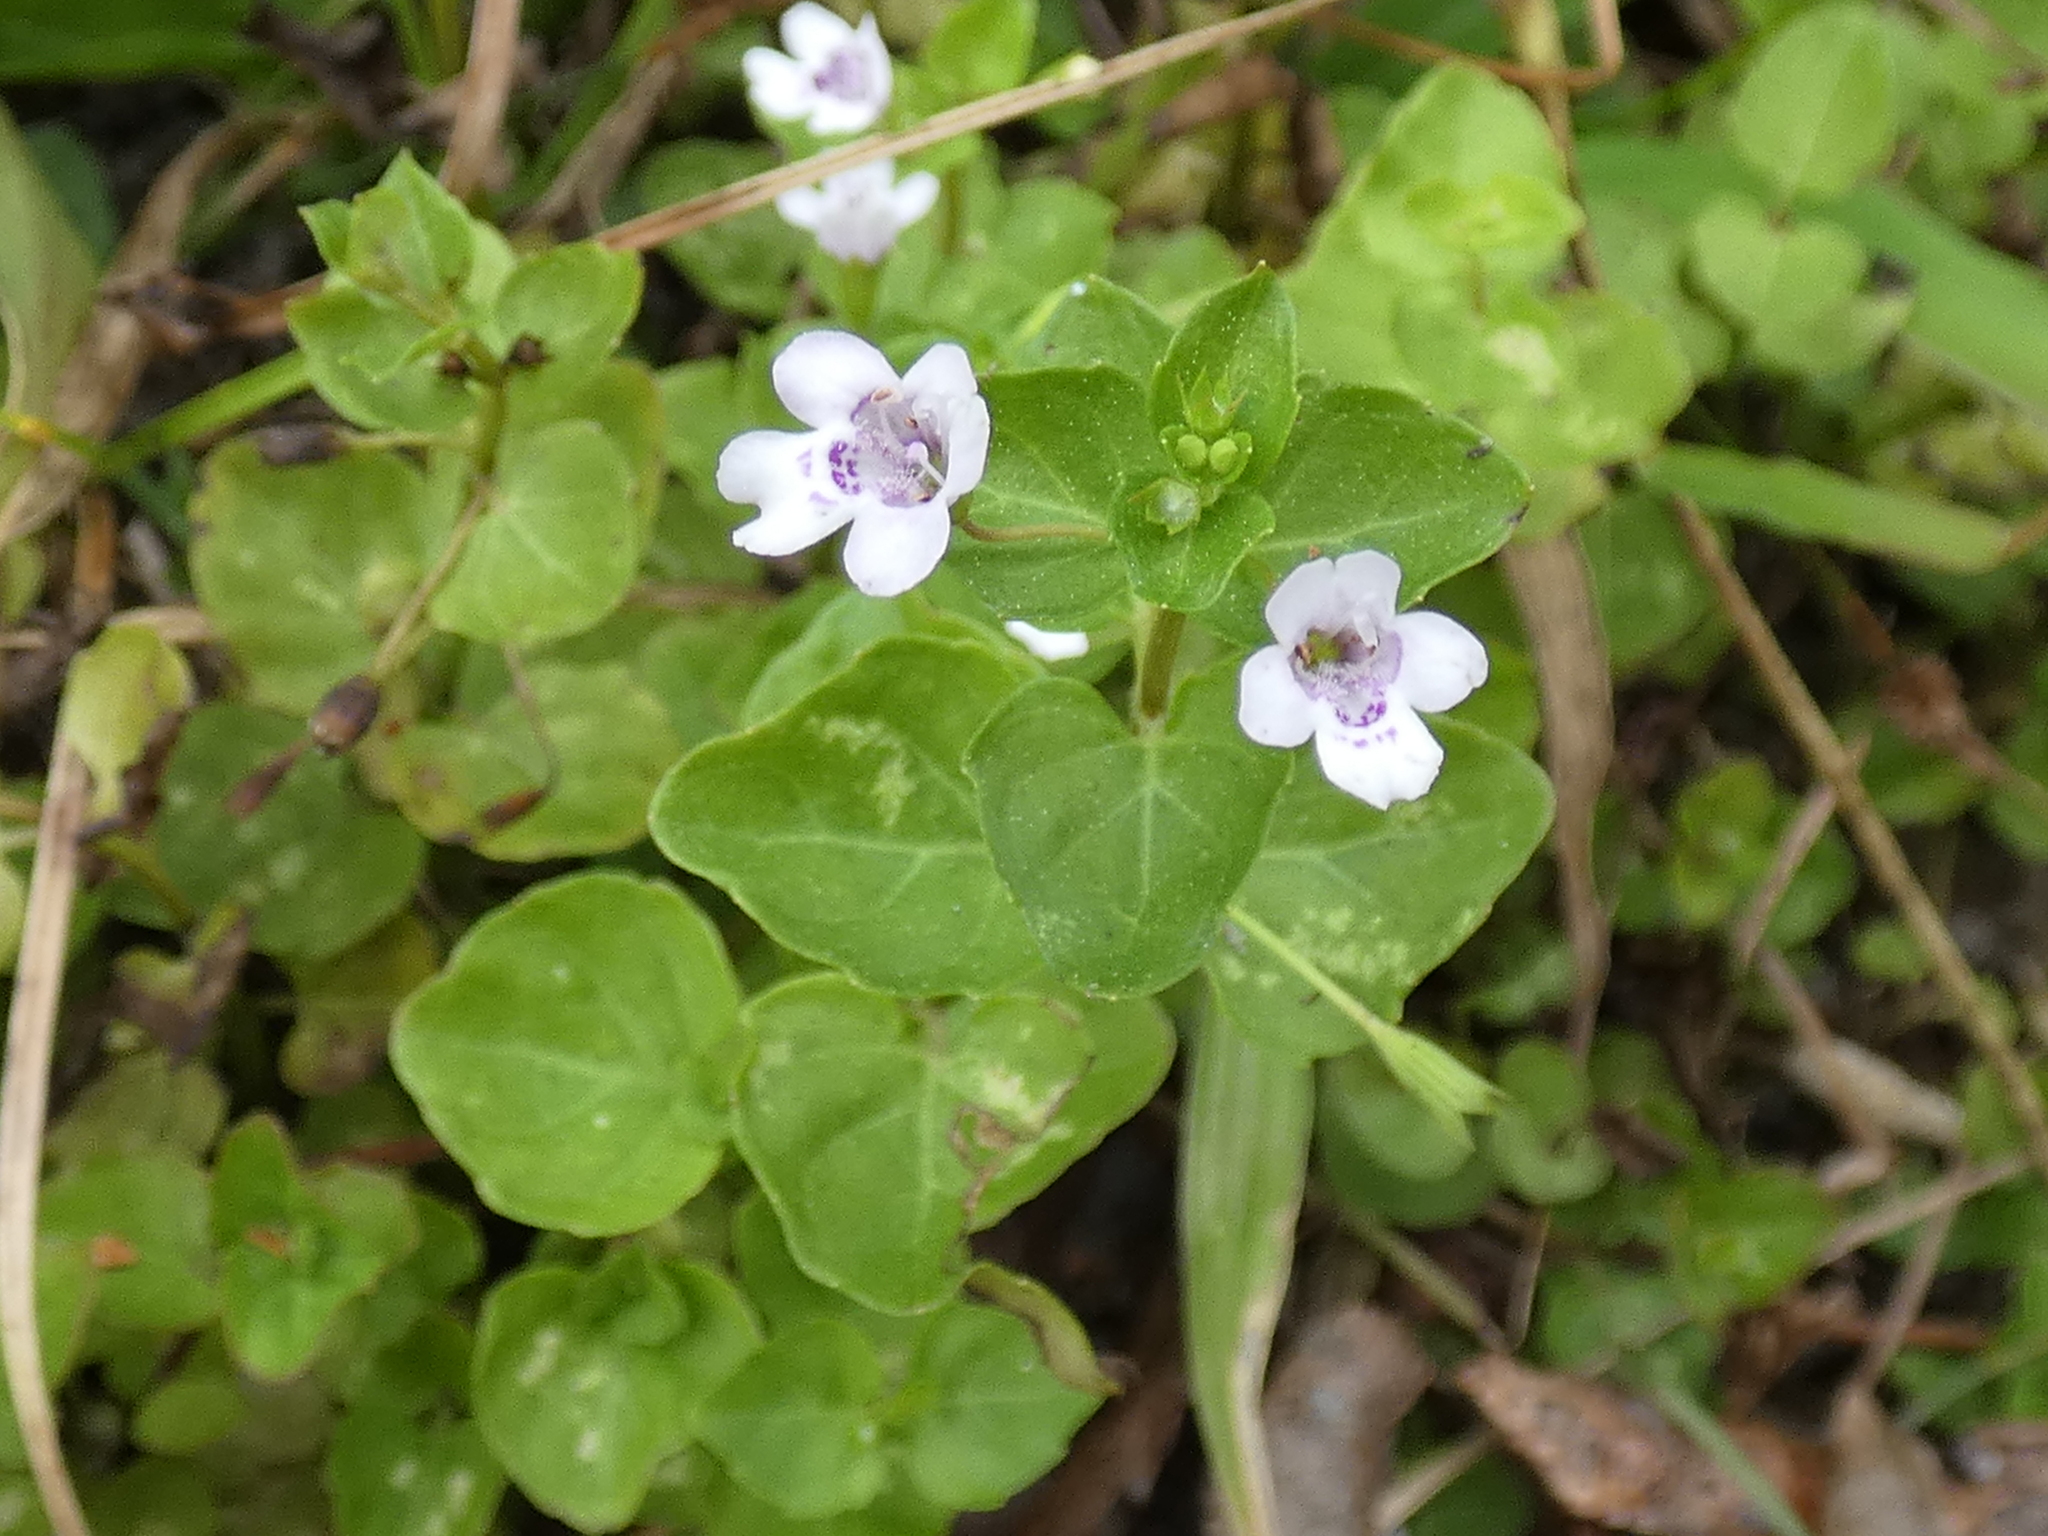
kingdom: Plantae
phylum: Tracheophyta
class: Magnoliopsida
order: Lamiales
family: Lamiaceae
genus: Clinopodium
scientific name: Clinopodium brownei
